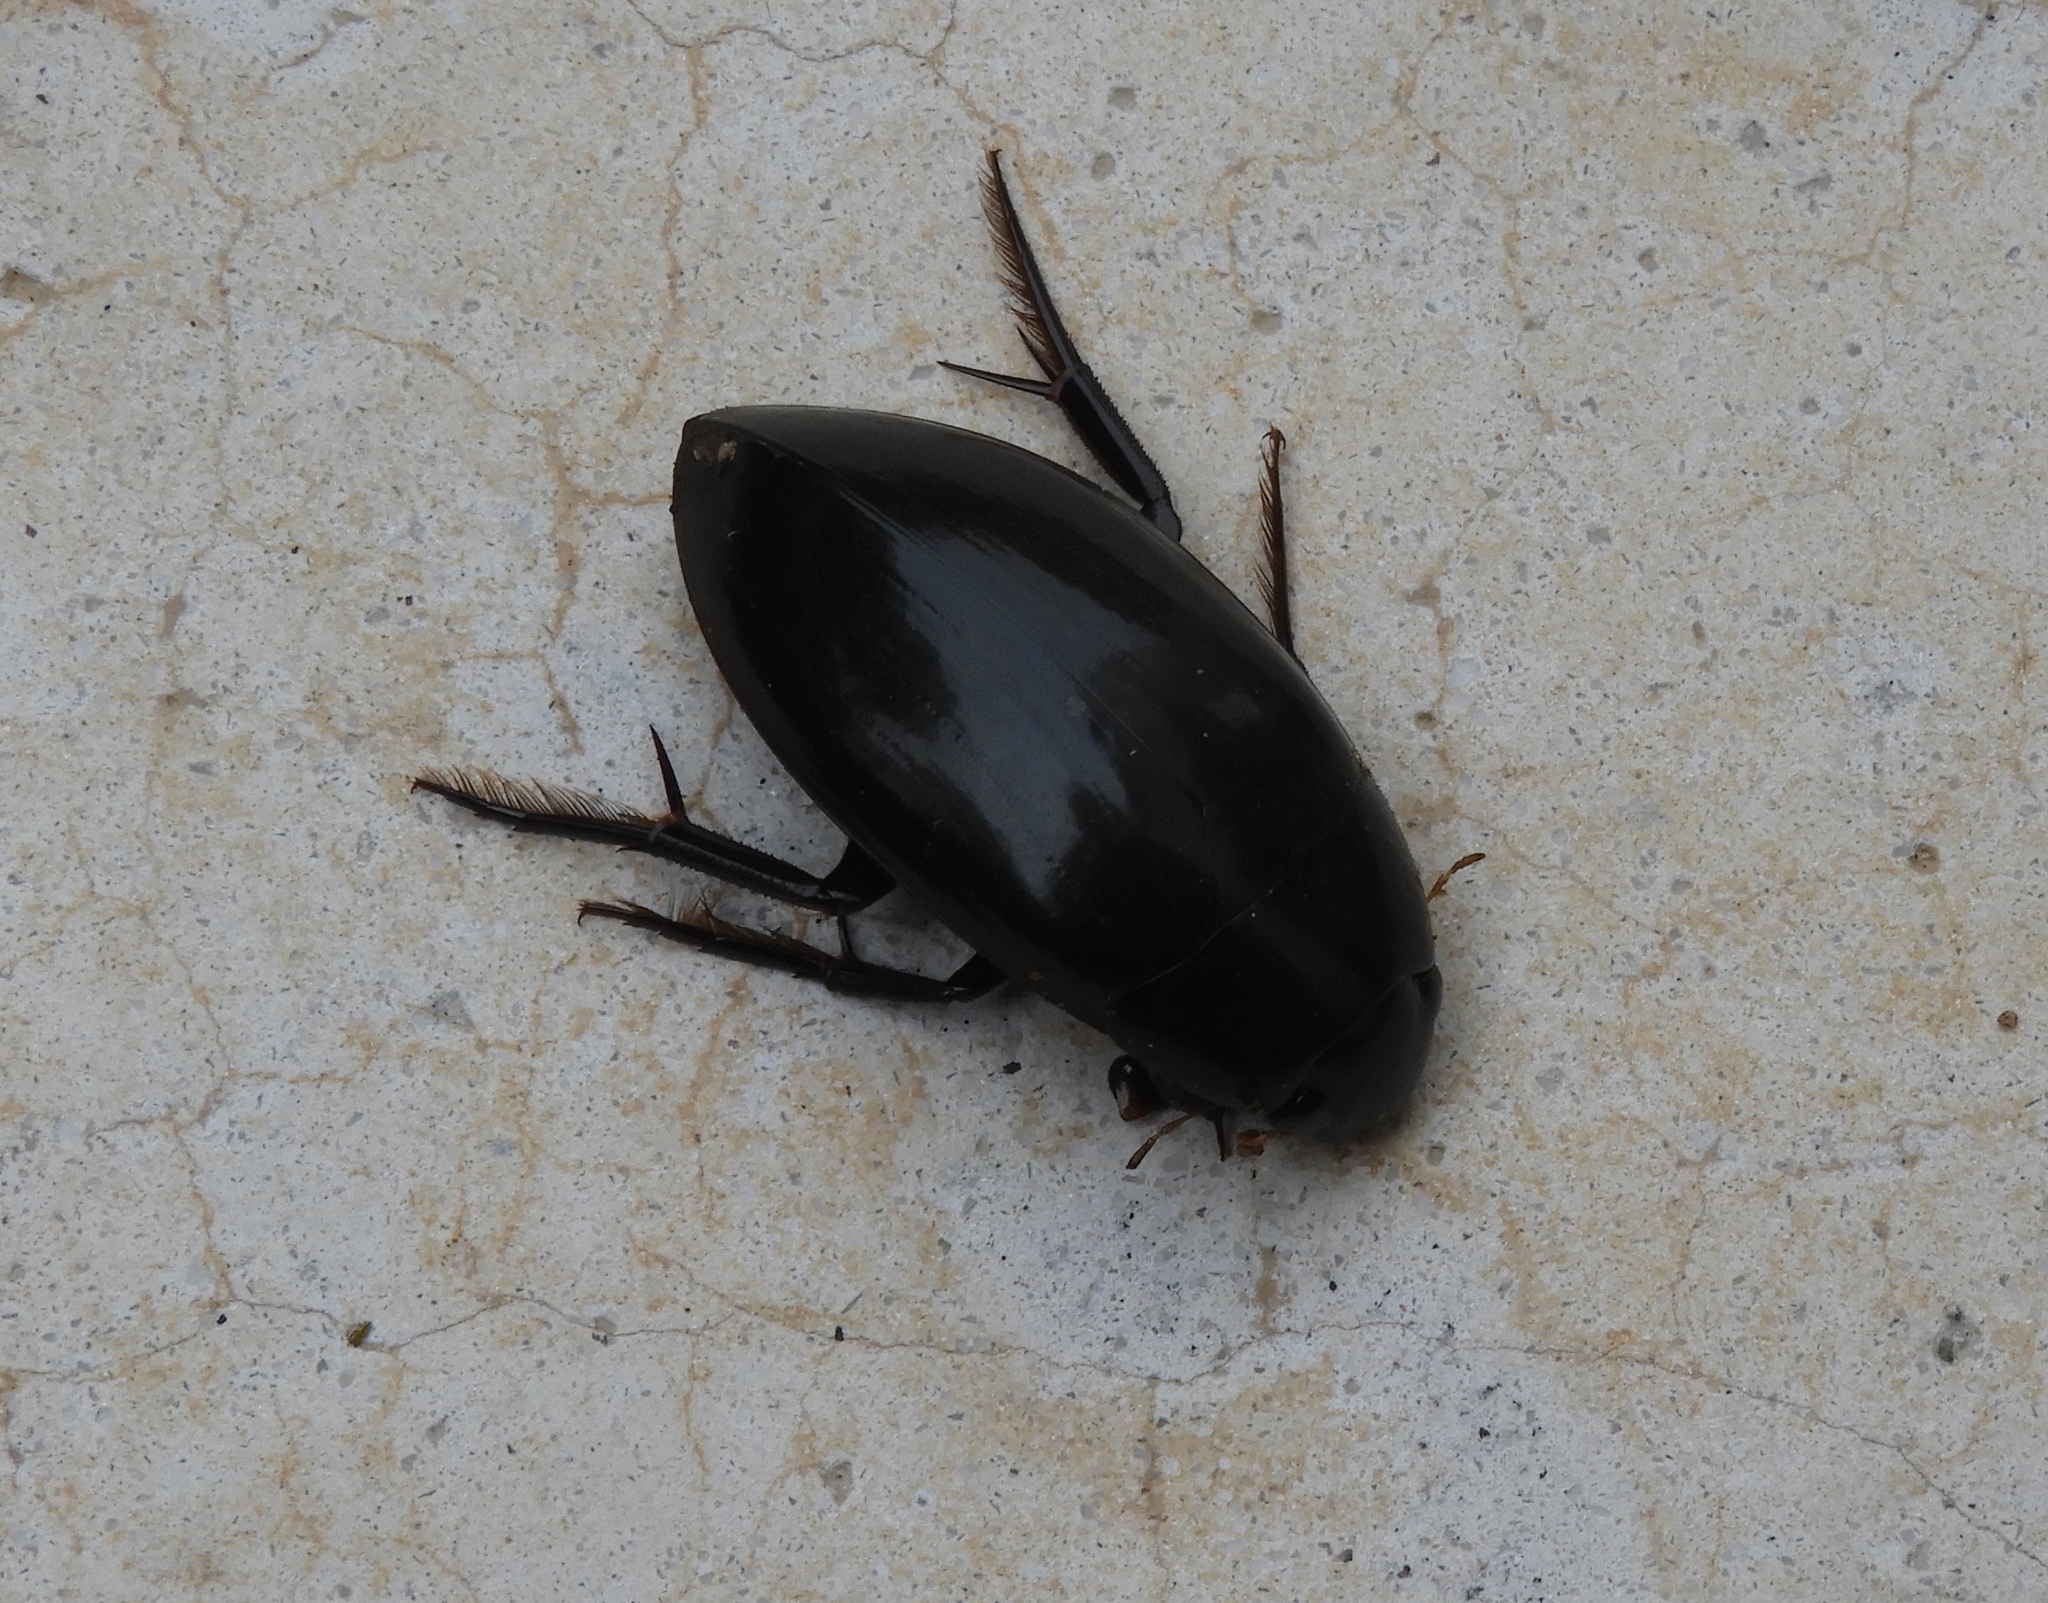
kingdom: Animalia
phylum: Arthropoda
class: Insecta
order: Coleoptera
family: Hydrophilidae
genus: Hydrophilus
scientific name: Hydrophilus
